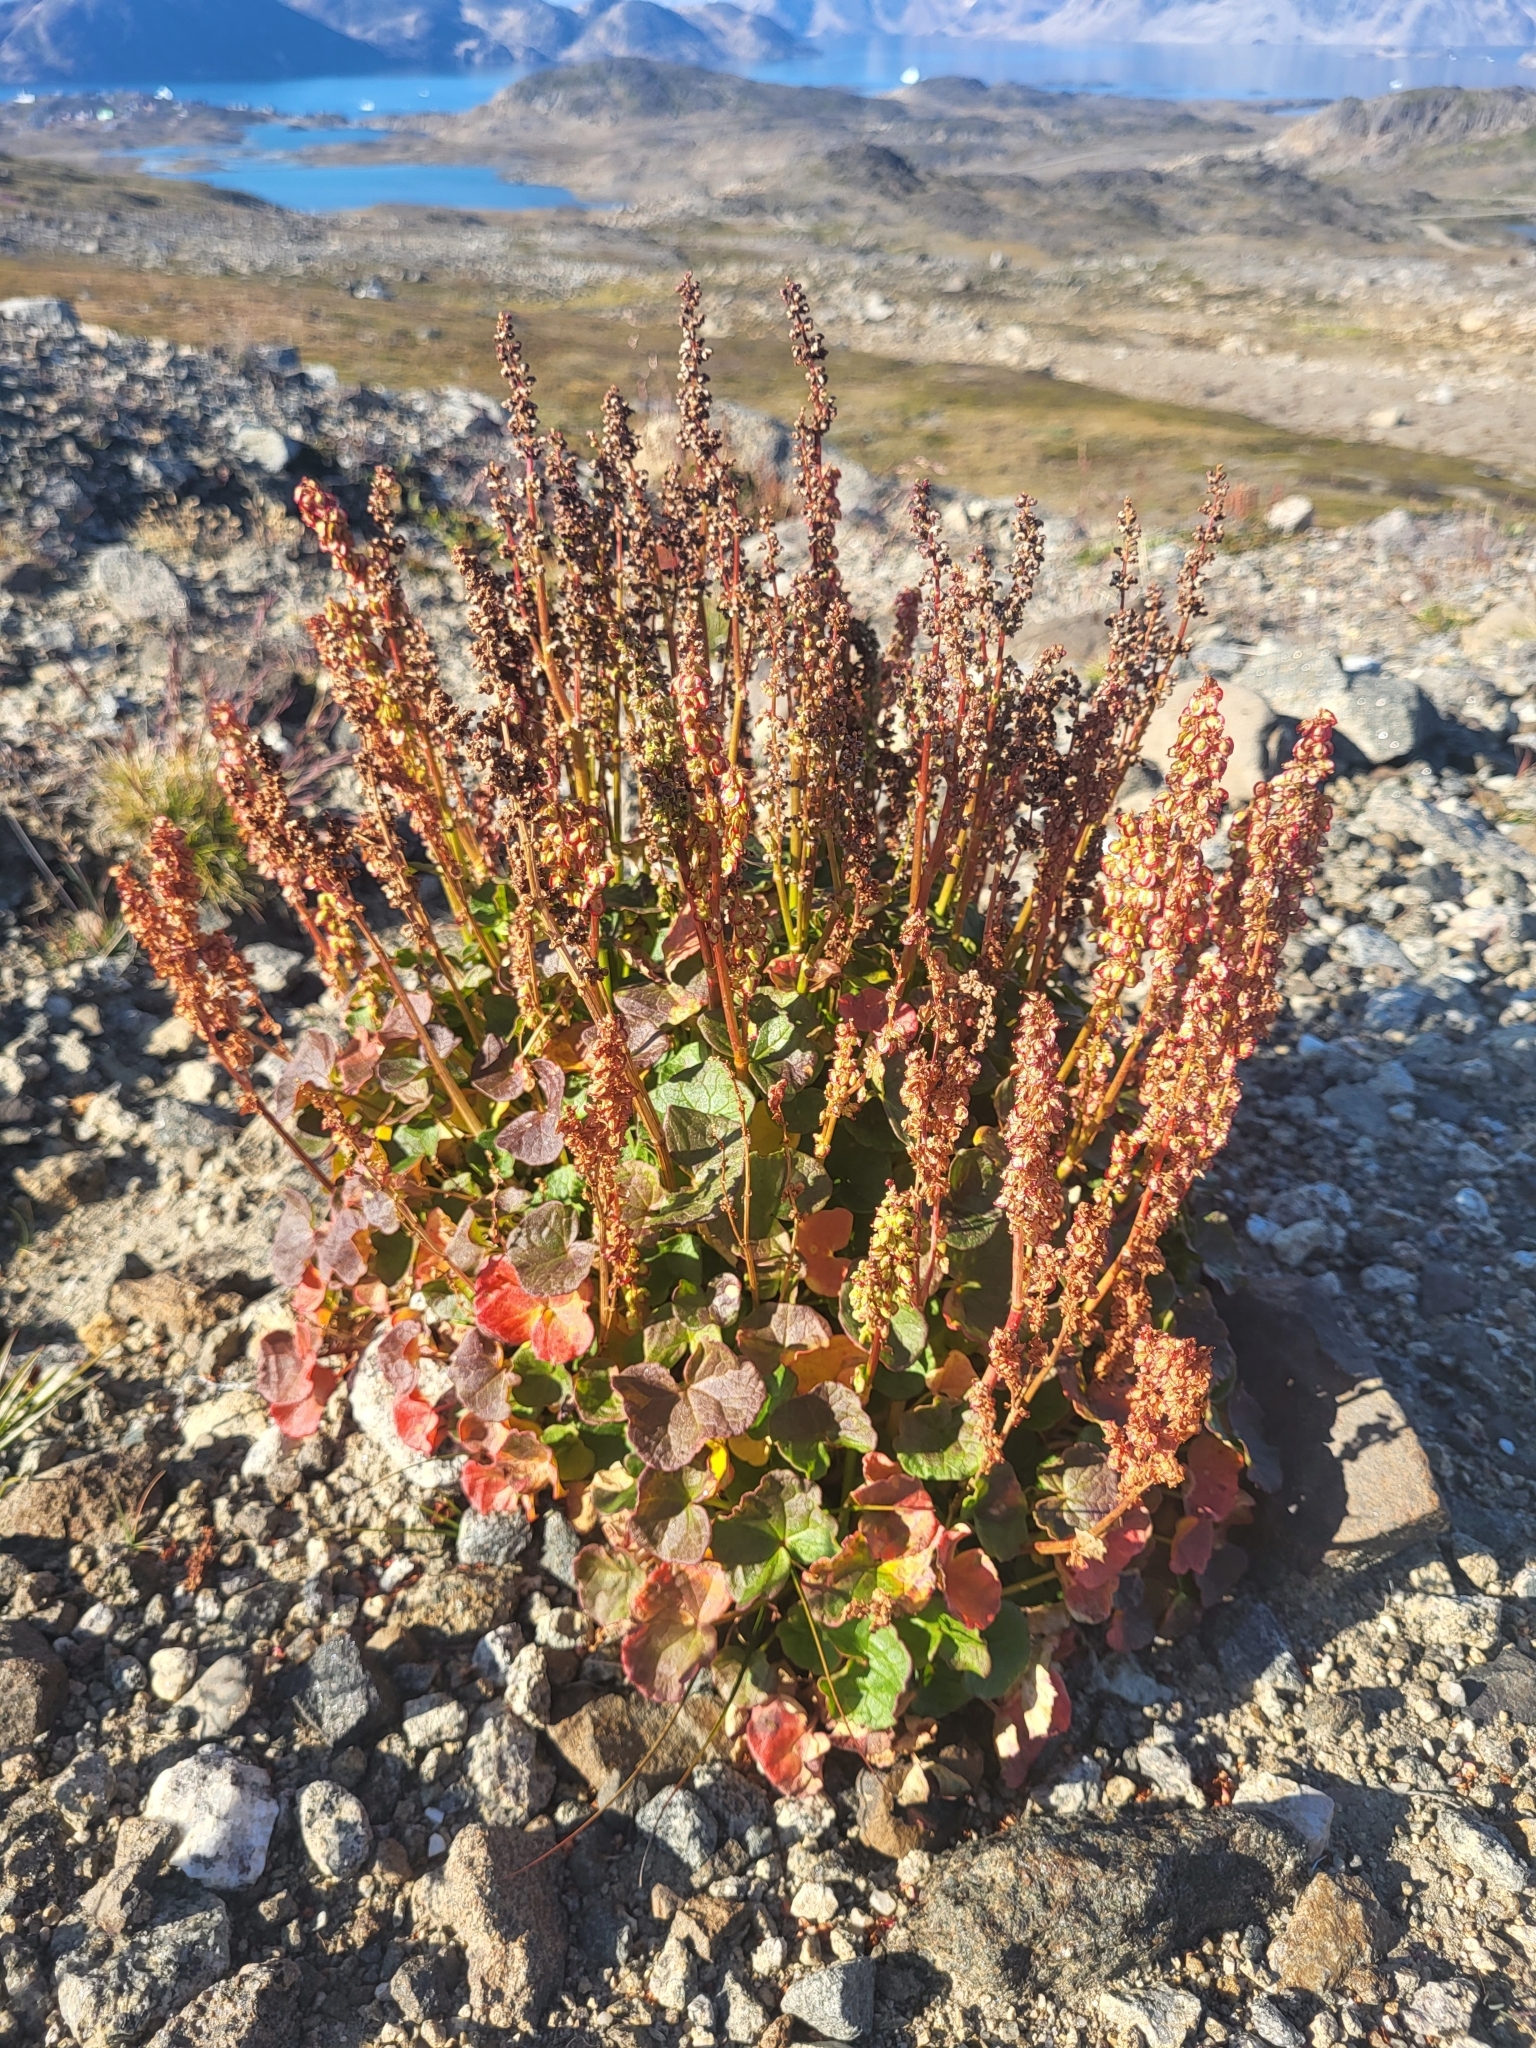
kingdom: Plantae
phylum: Tracheophyta
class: Magnoliopsida
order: Caryophyllales
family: Polygonaceae
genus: Oxyria
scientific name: Oxyria digyna
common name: Alpine mountain-sorrel
